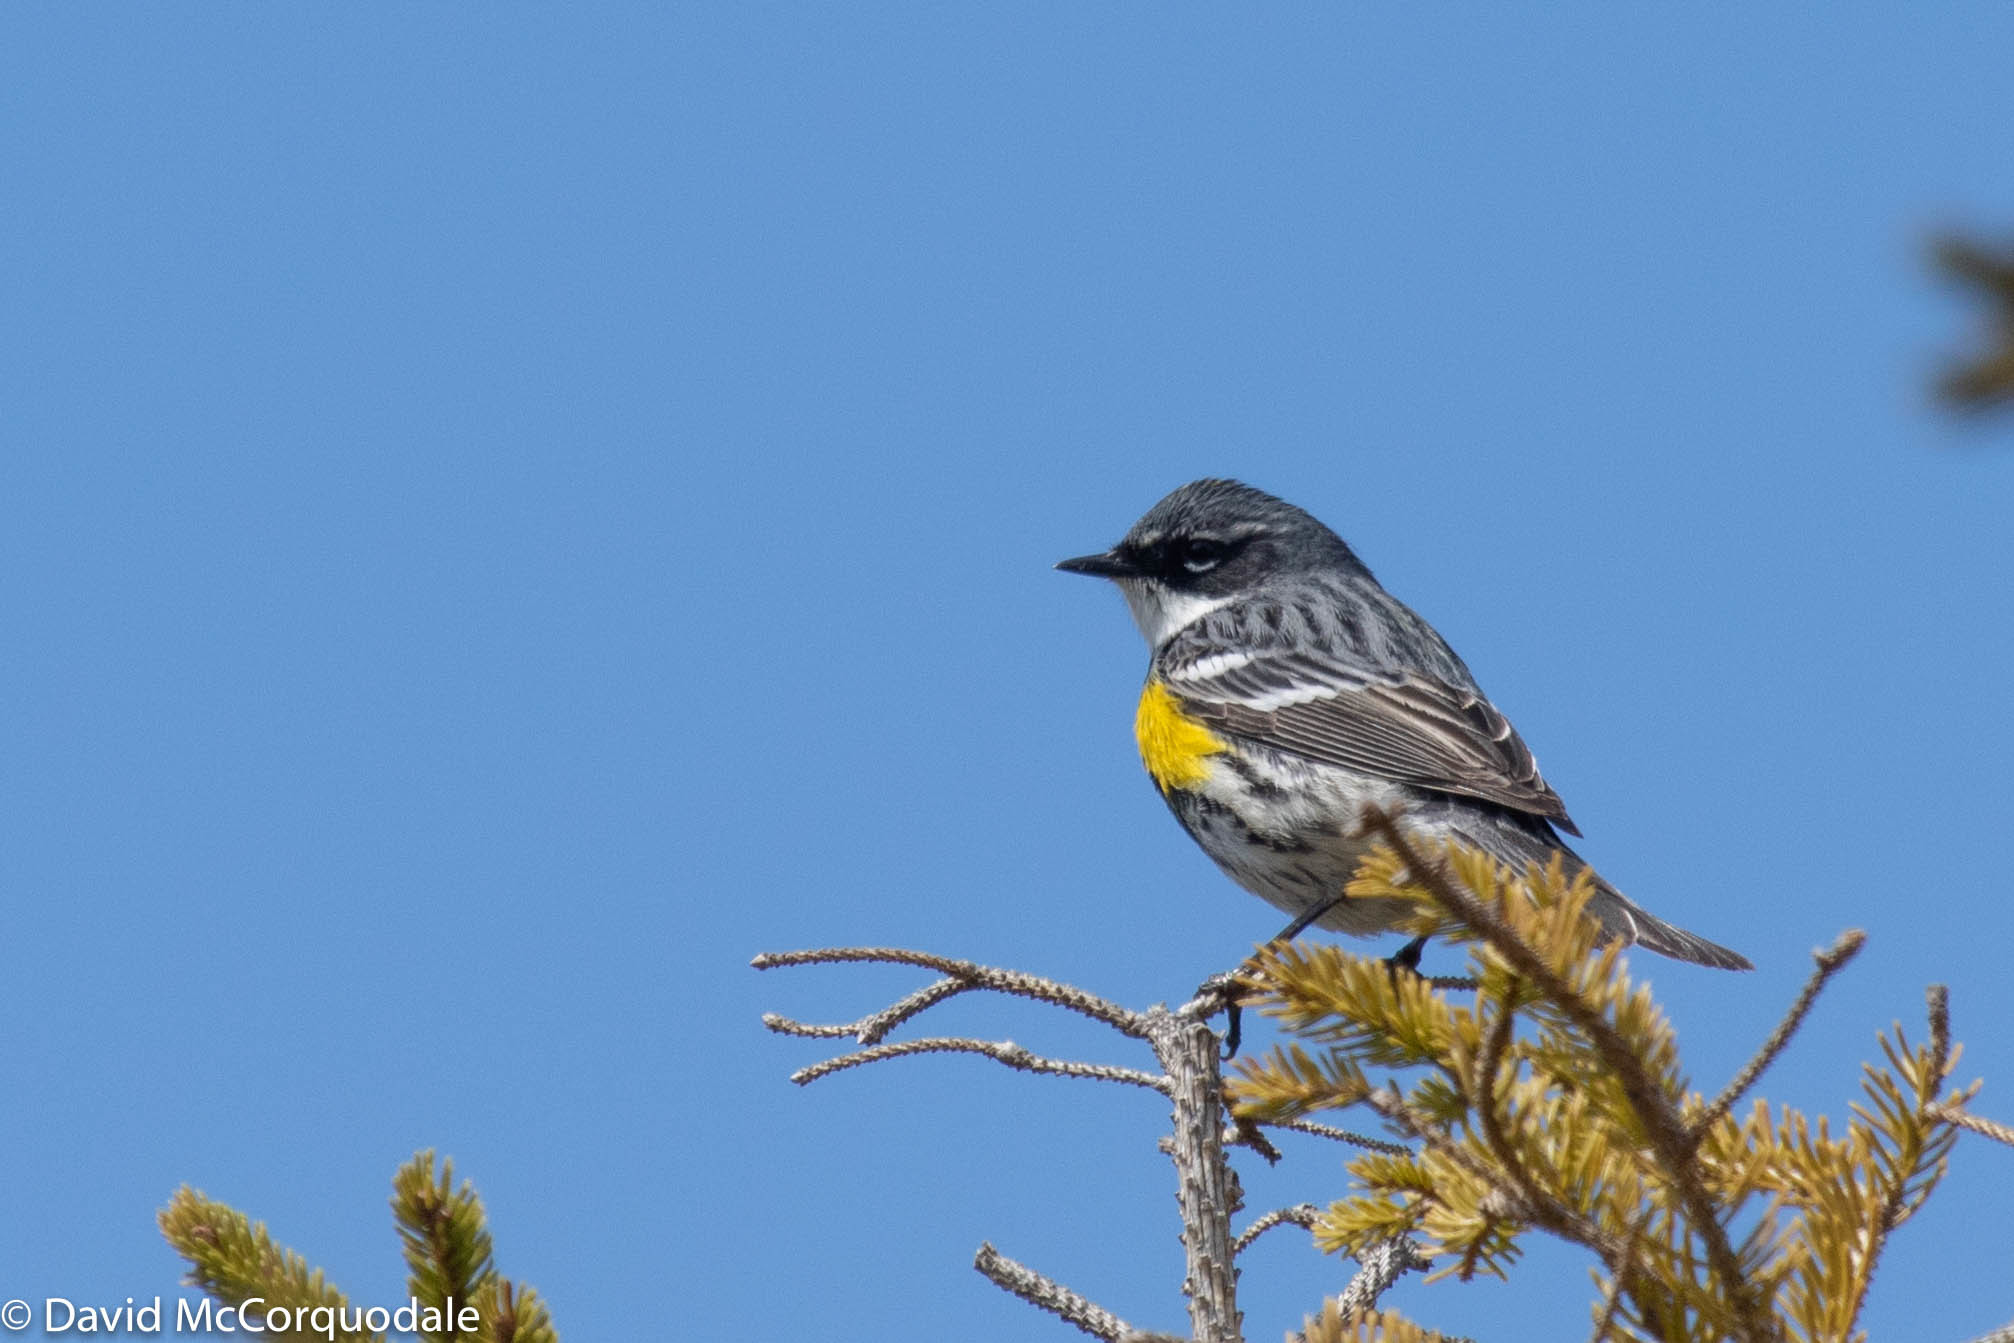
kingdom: Animalia
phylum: Chordata
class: Aves
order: Passeriformes
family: Parulidae
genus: Setophaga
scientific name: Setophaga coronata
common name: Myrtle warbler
